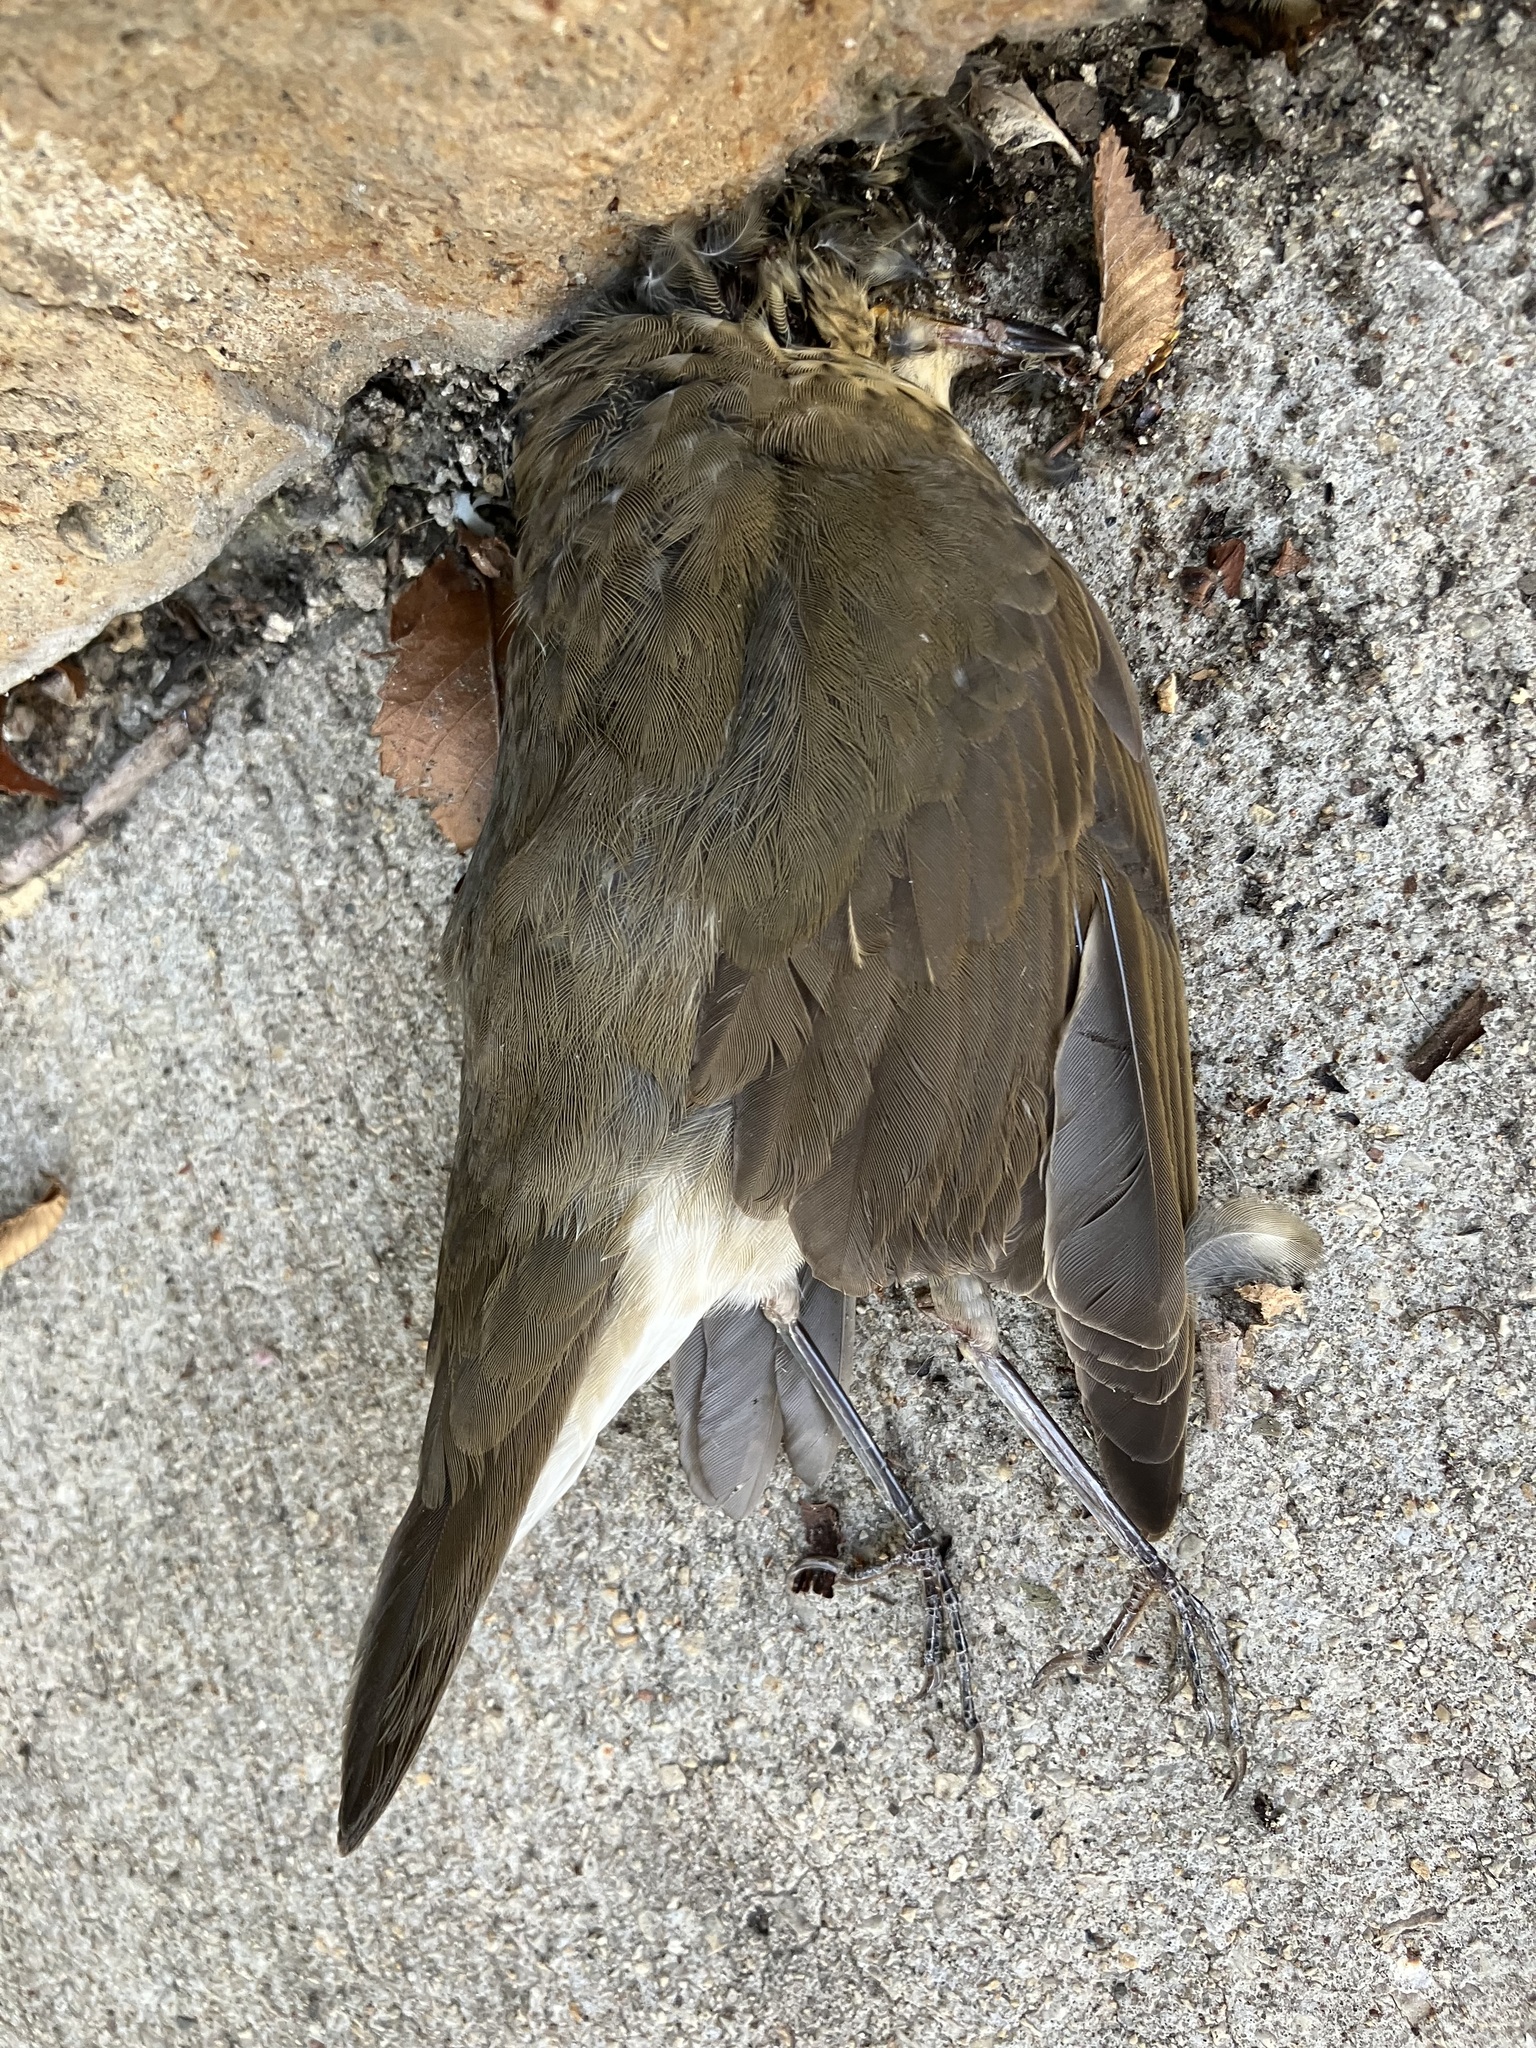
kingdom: Animalia
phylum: Chordata
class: Aves
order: Passeriformes
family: Turdidae
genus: Catharus
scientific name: Catharus ustulatus
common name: Swainson's thrush
